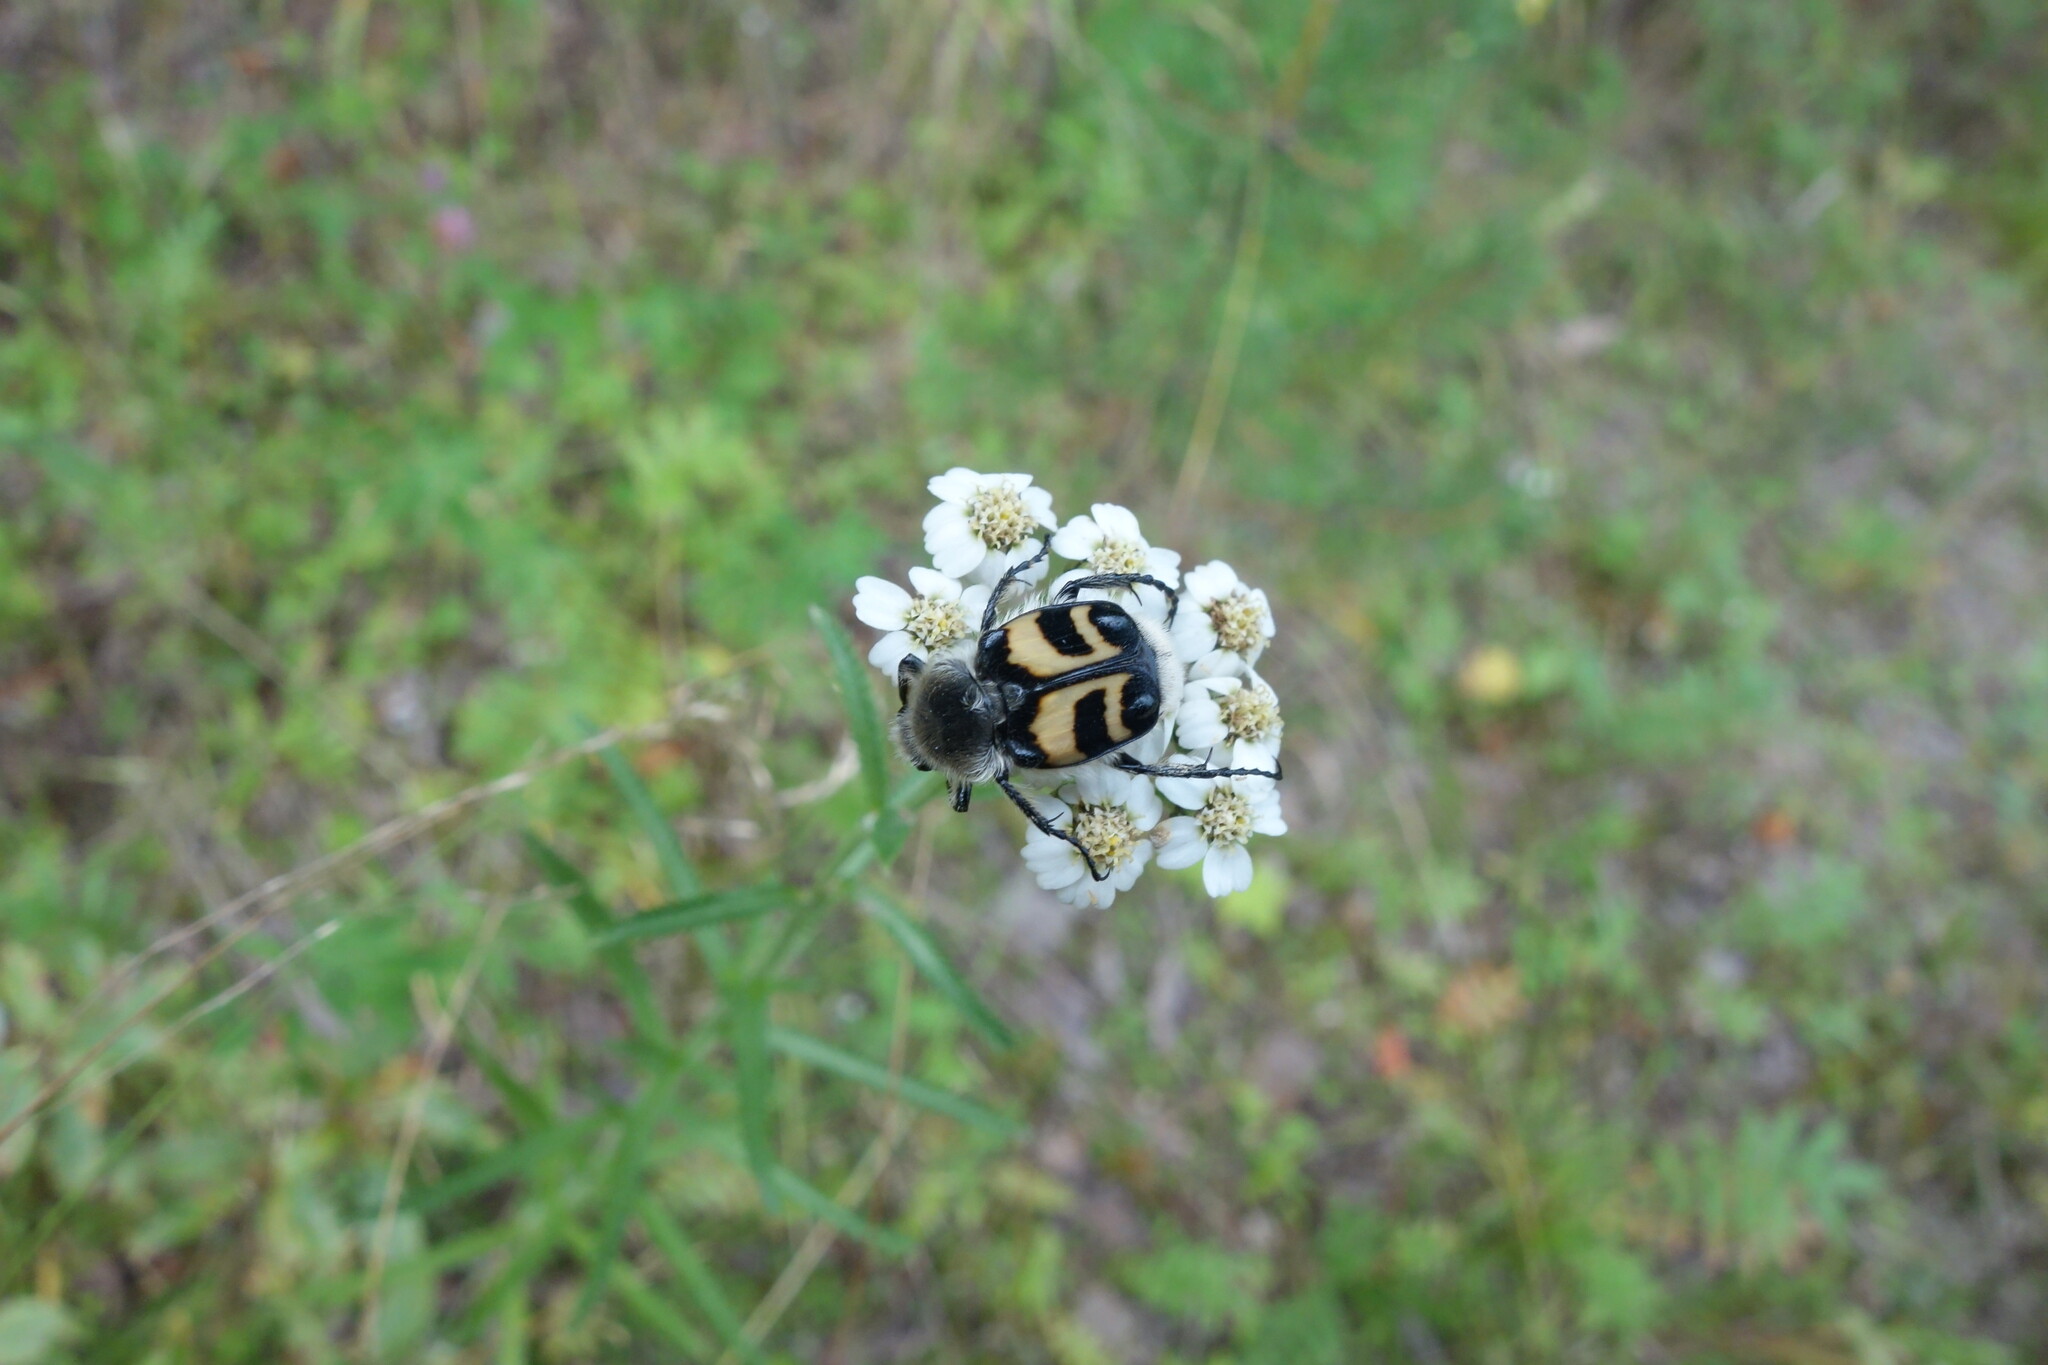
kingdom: Animalia
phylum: Arthropoda
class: Insecta
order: Coleoptera
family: Scarabaeidae
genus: Trichius
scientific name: Trichius fasciatus
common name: Bee beetle
